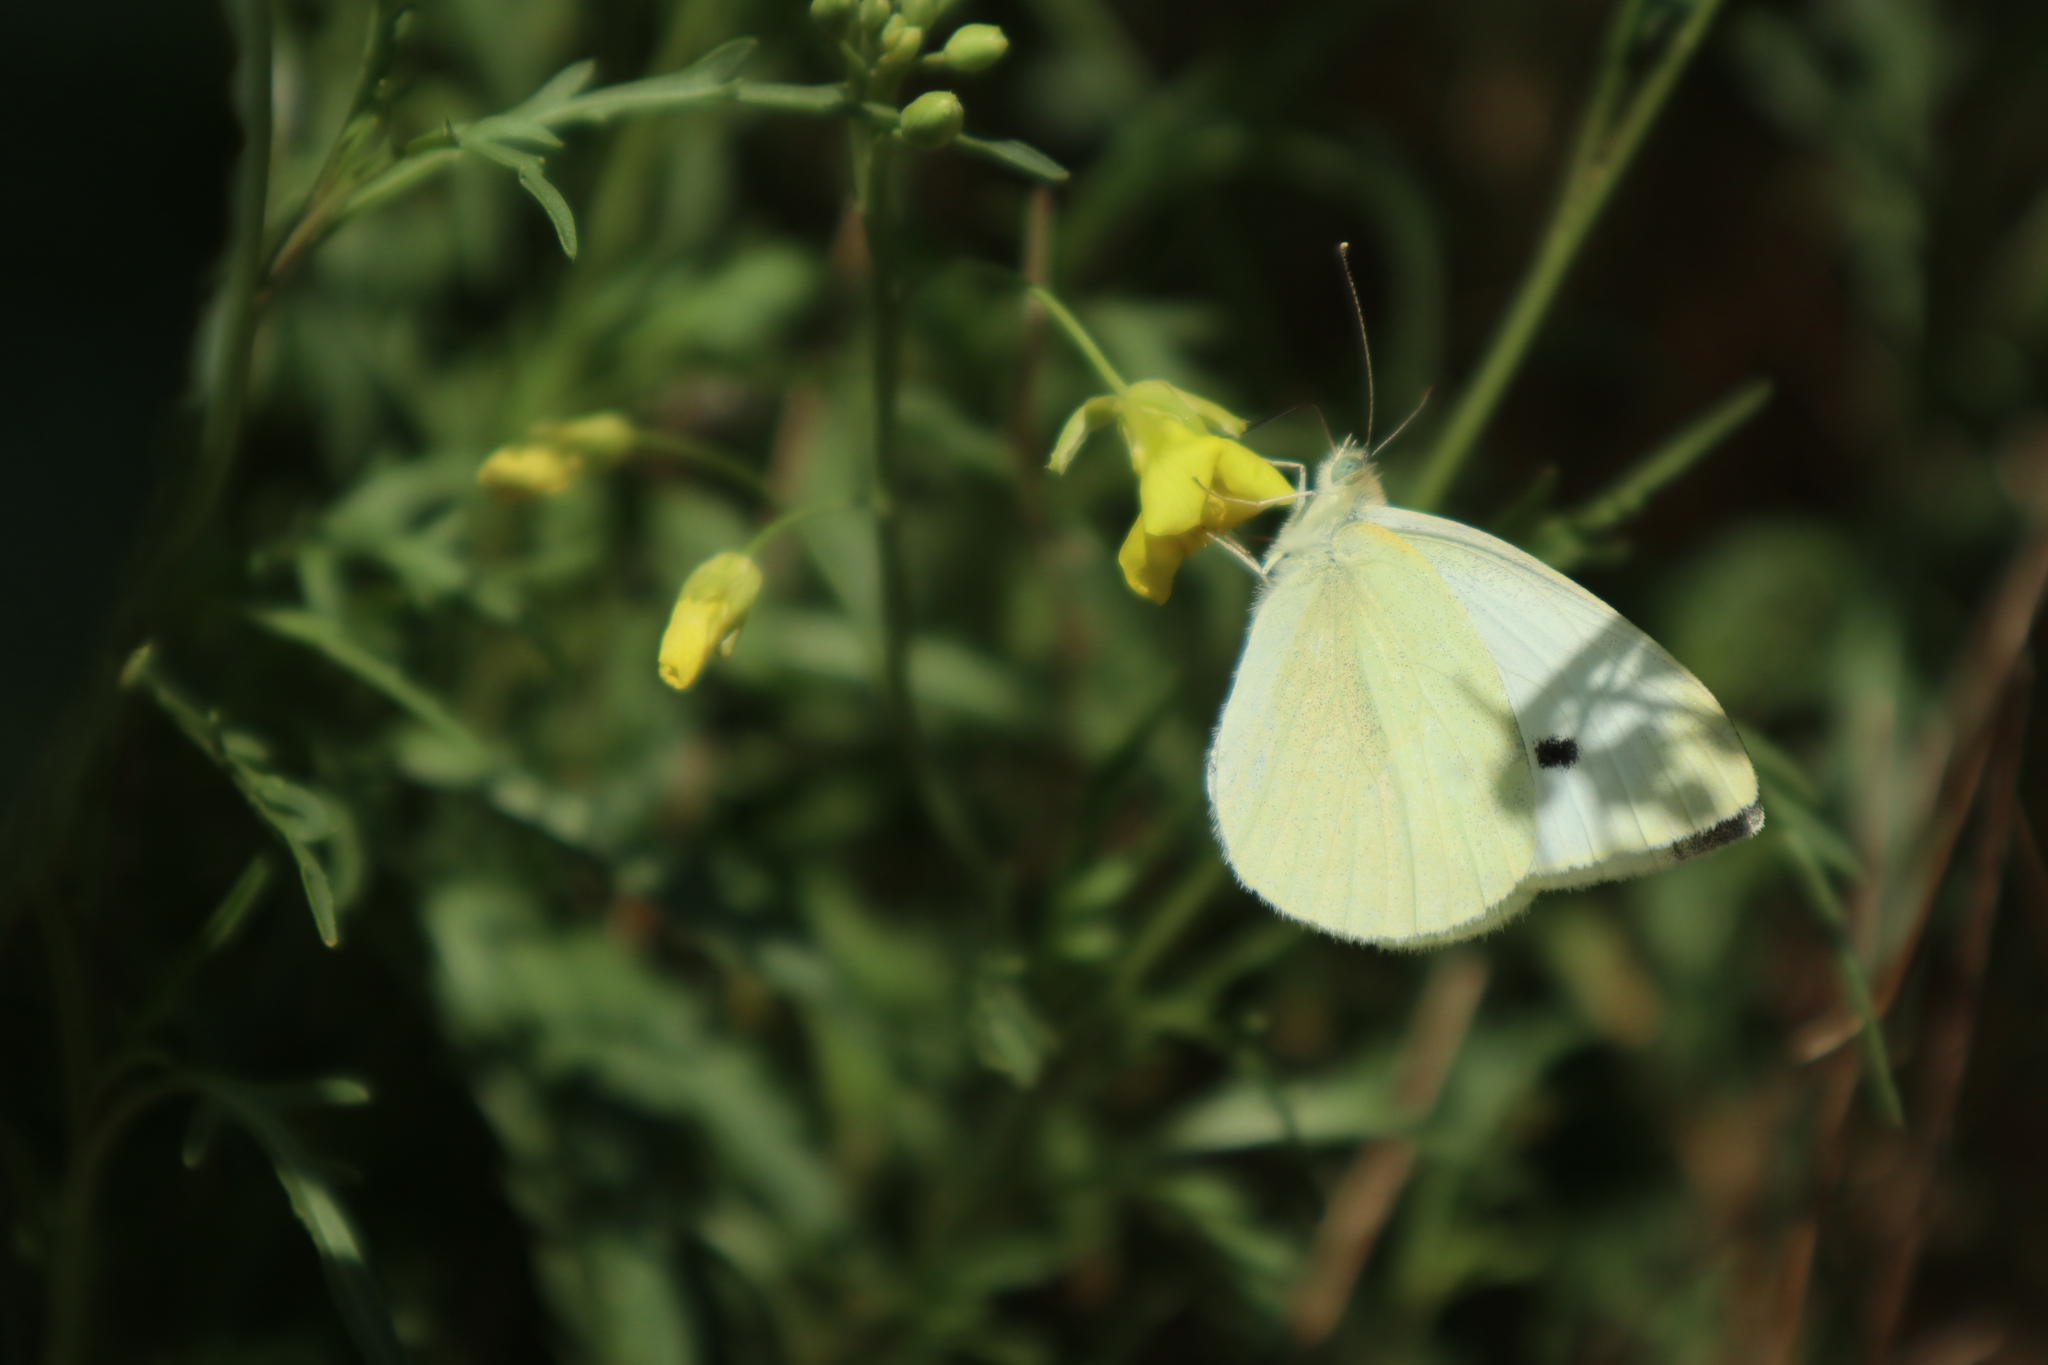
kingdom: Animalia
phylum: Arthropoda
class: Insecta
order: Lepidoptera
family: Pieridae
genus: Pieris
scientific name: Pieris rapae
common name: Small white
